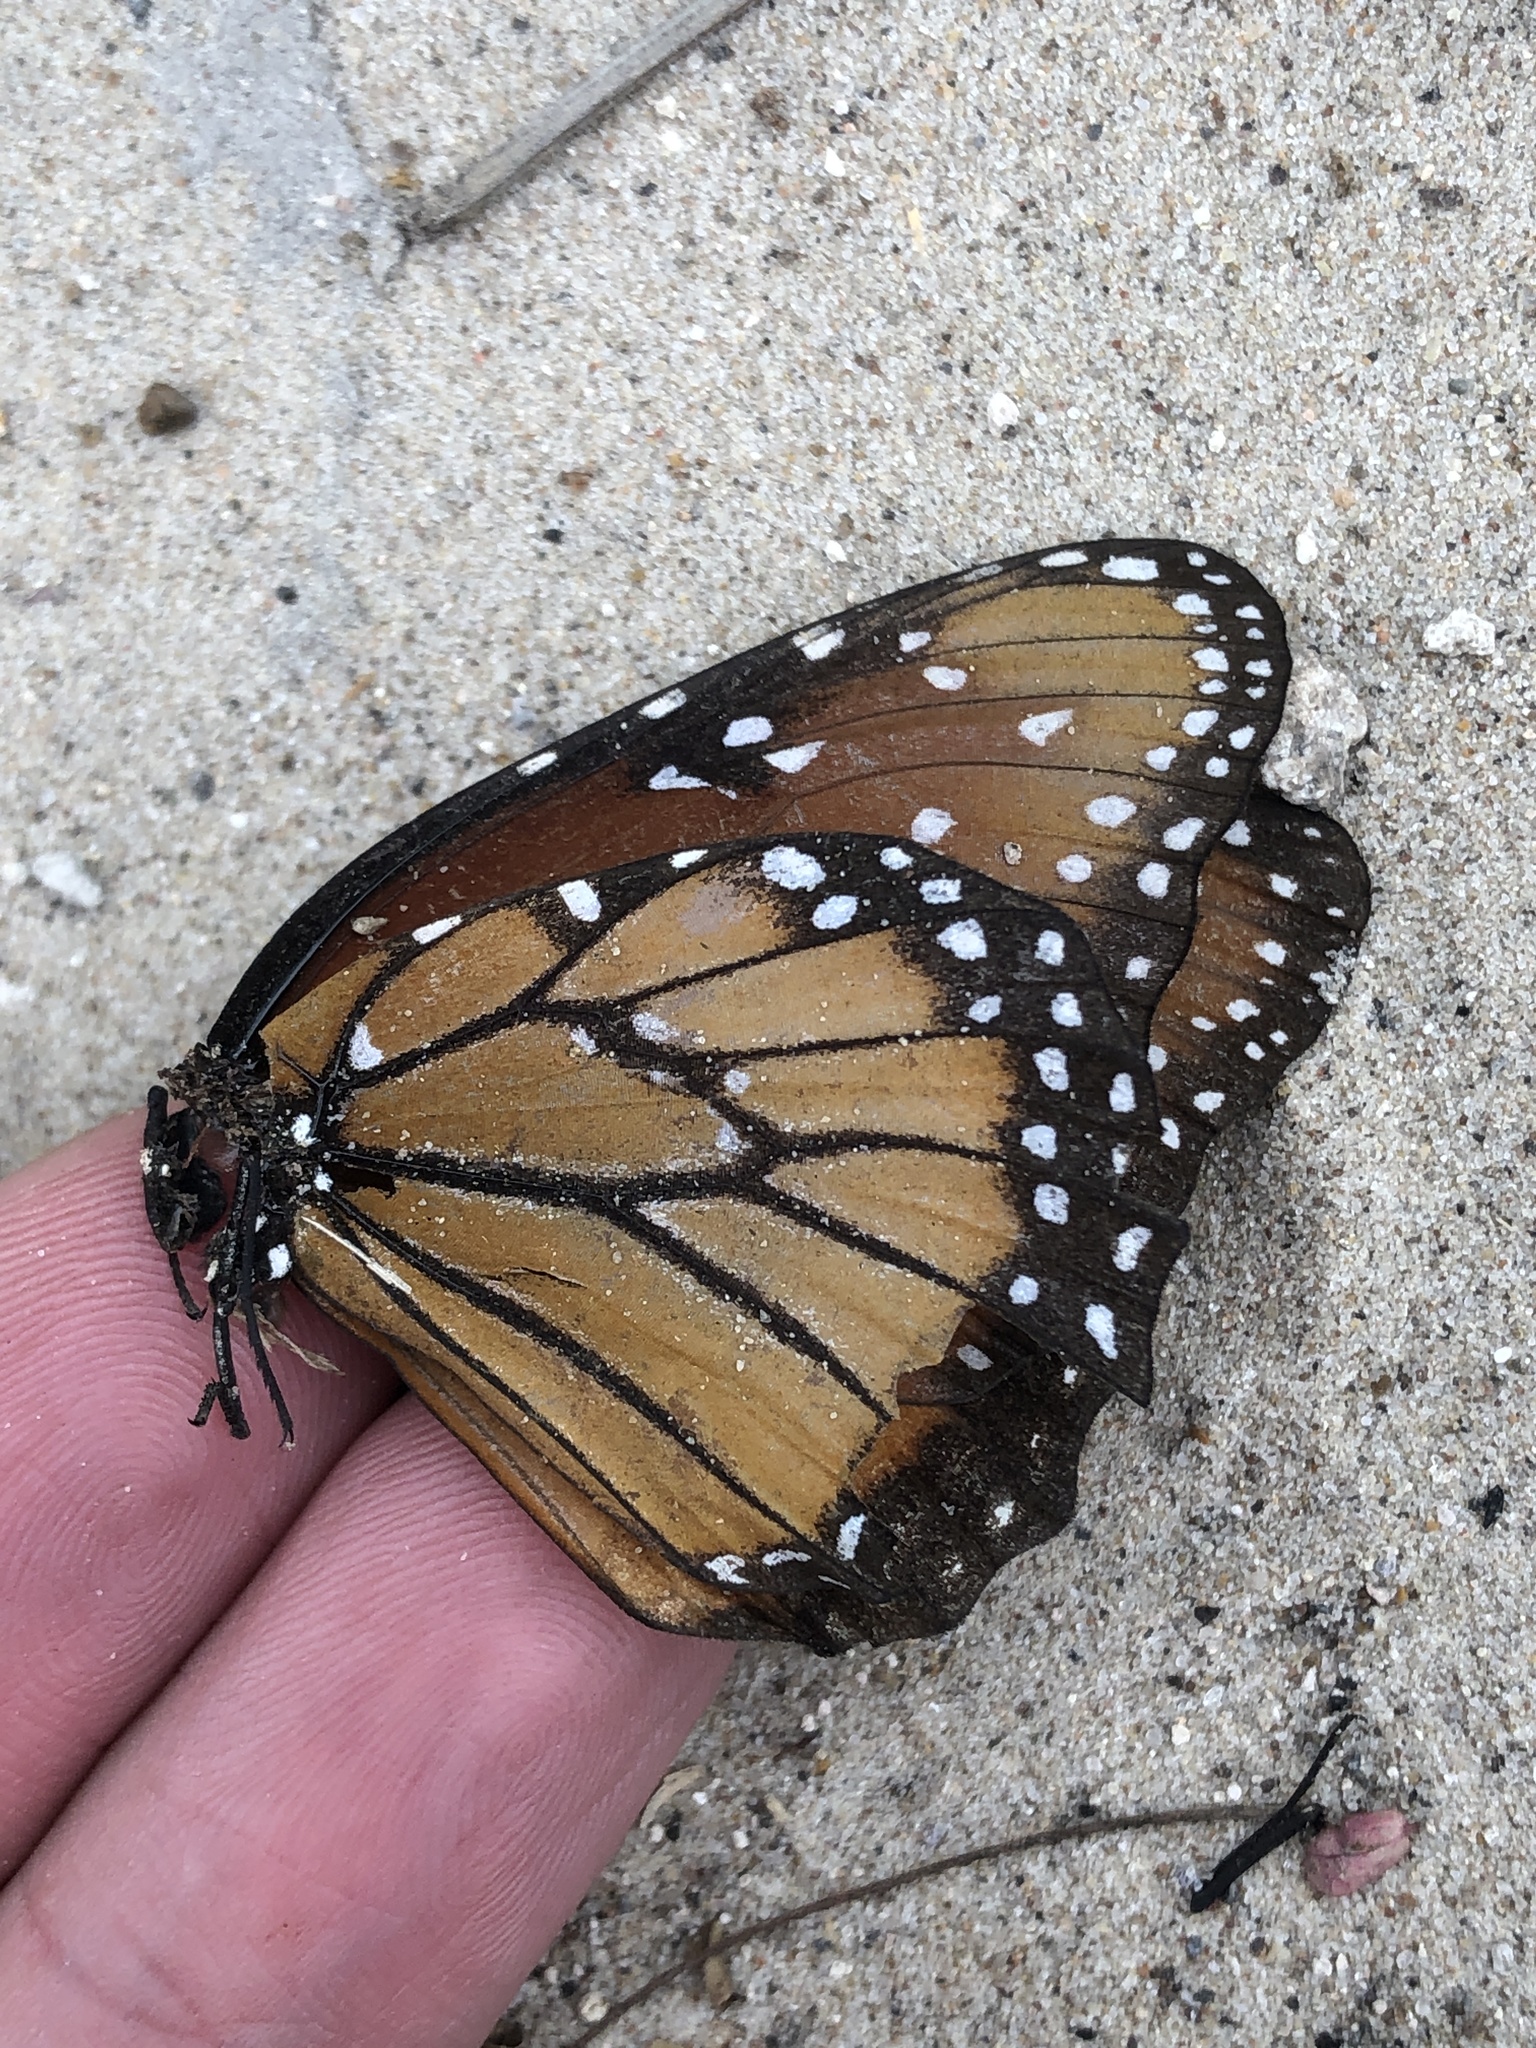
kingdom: Animalia
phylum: Arthropoda
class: Insecta
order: Lepidoptera
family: Nymphalidae
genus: Danaus
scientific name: Danaus gilippus
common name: Queen
